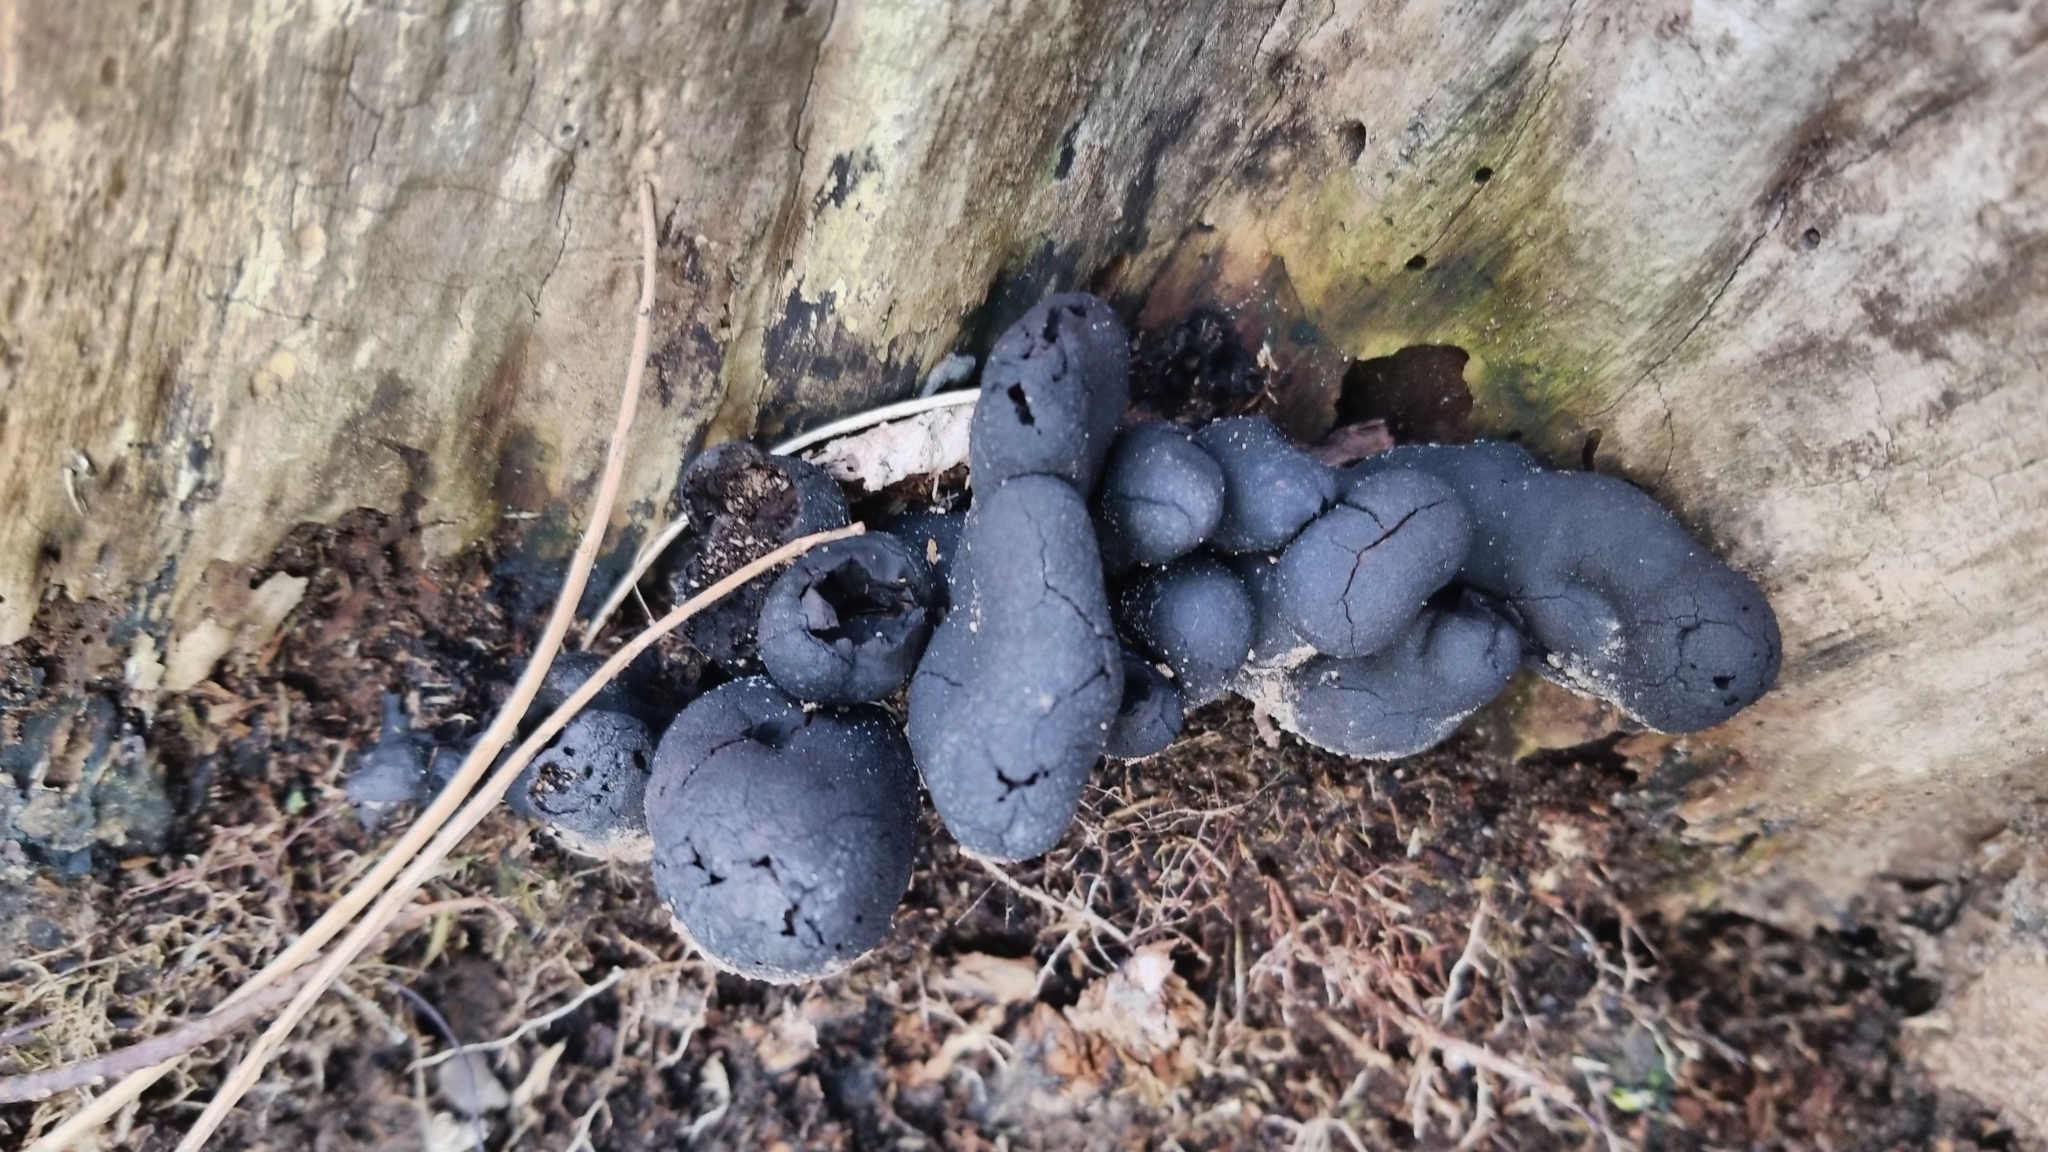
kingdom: Fungi
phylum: Ascomycota
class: Sordariomycetes
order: Xylariales
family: Xylariaceae
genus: Xylaria
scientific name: Xylaria polymorpha
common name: Dead man's fingers
